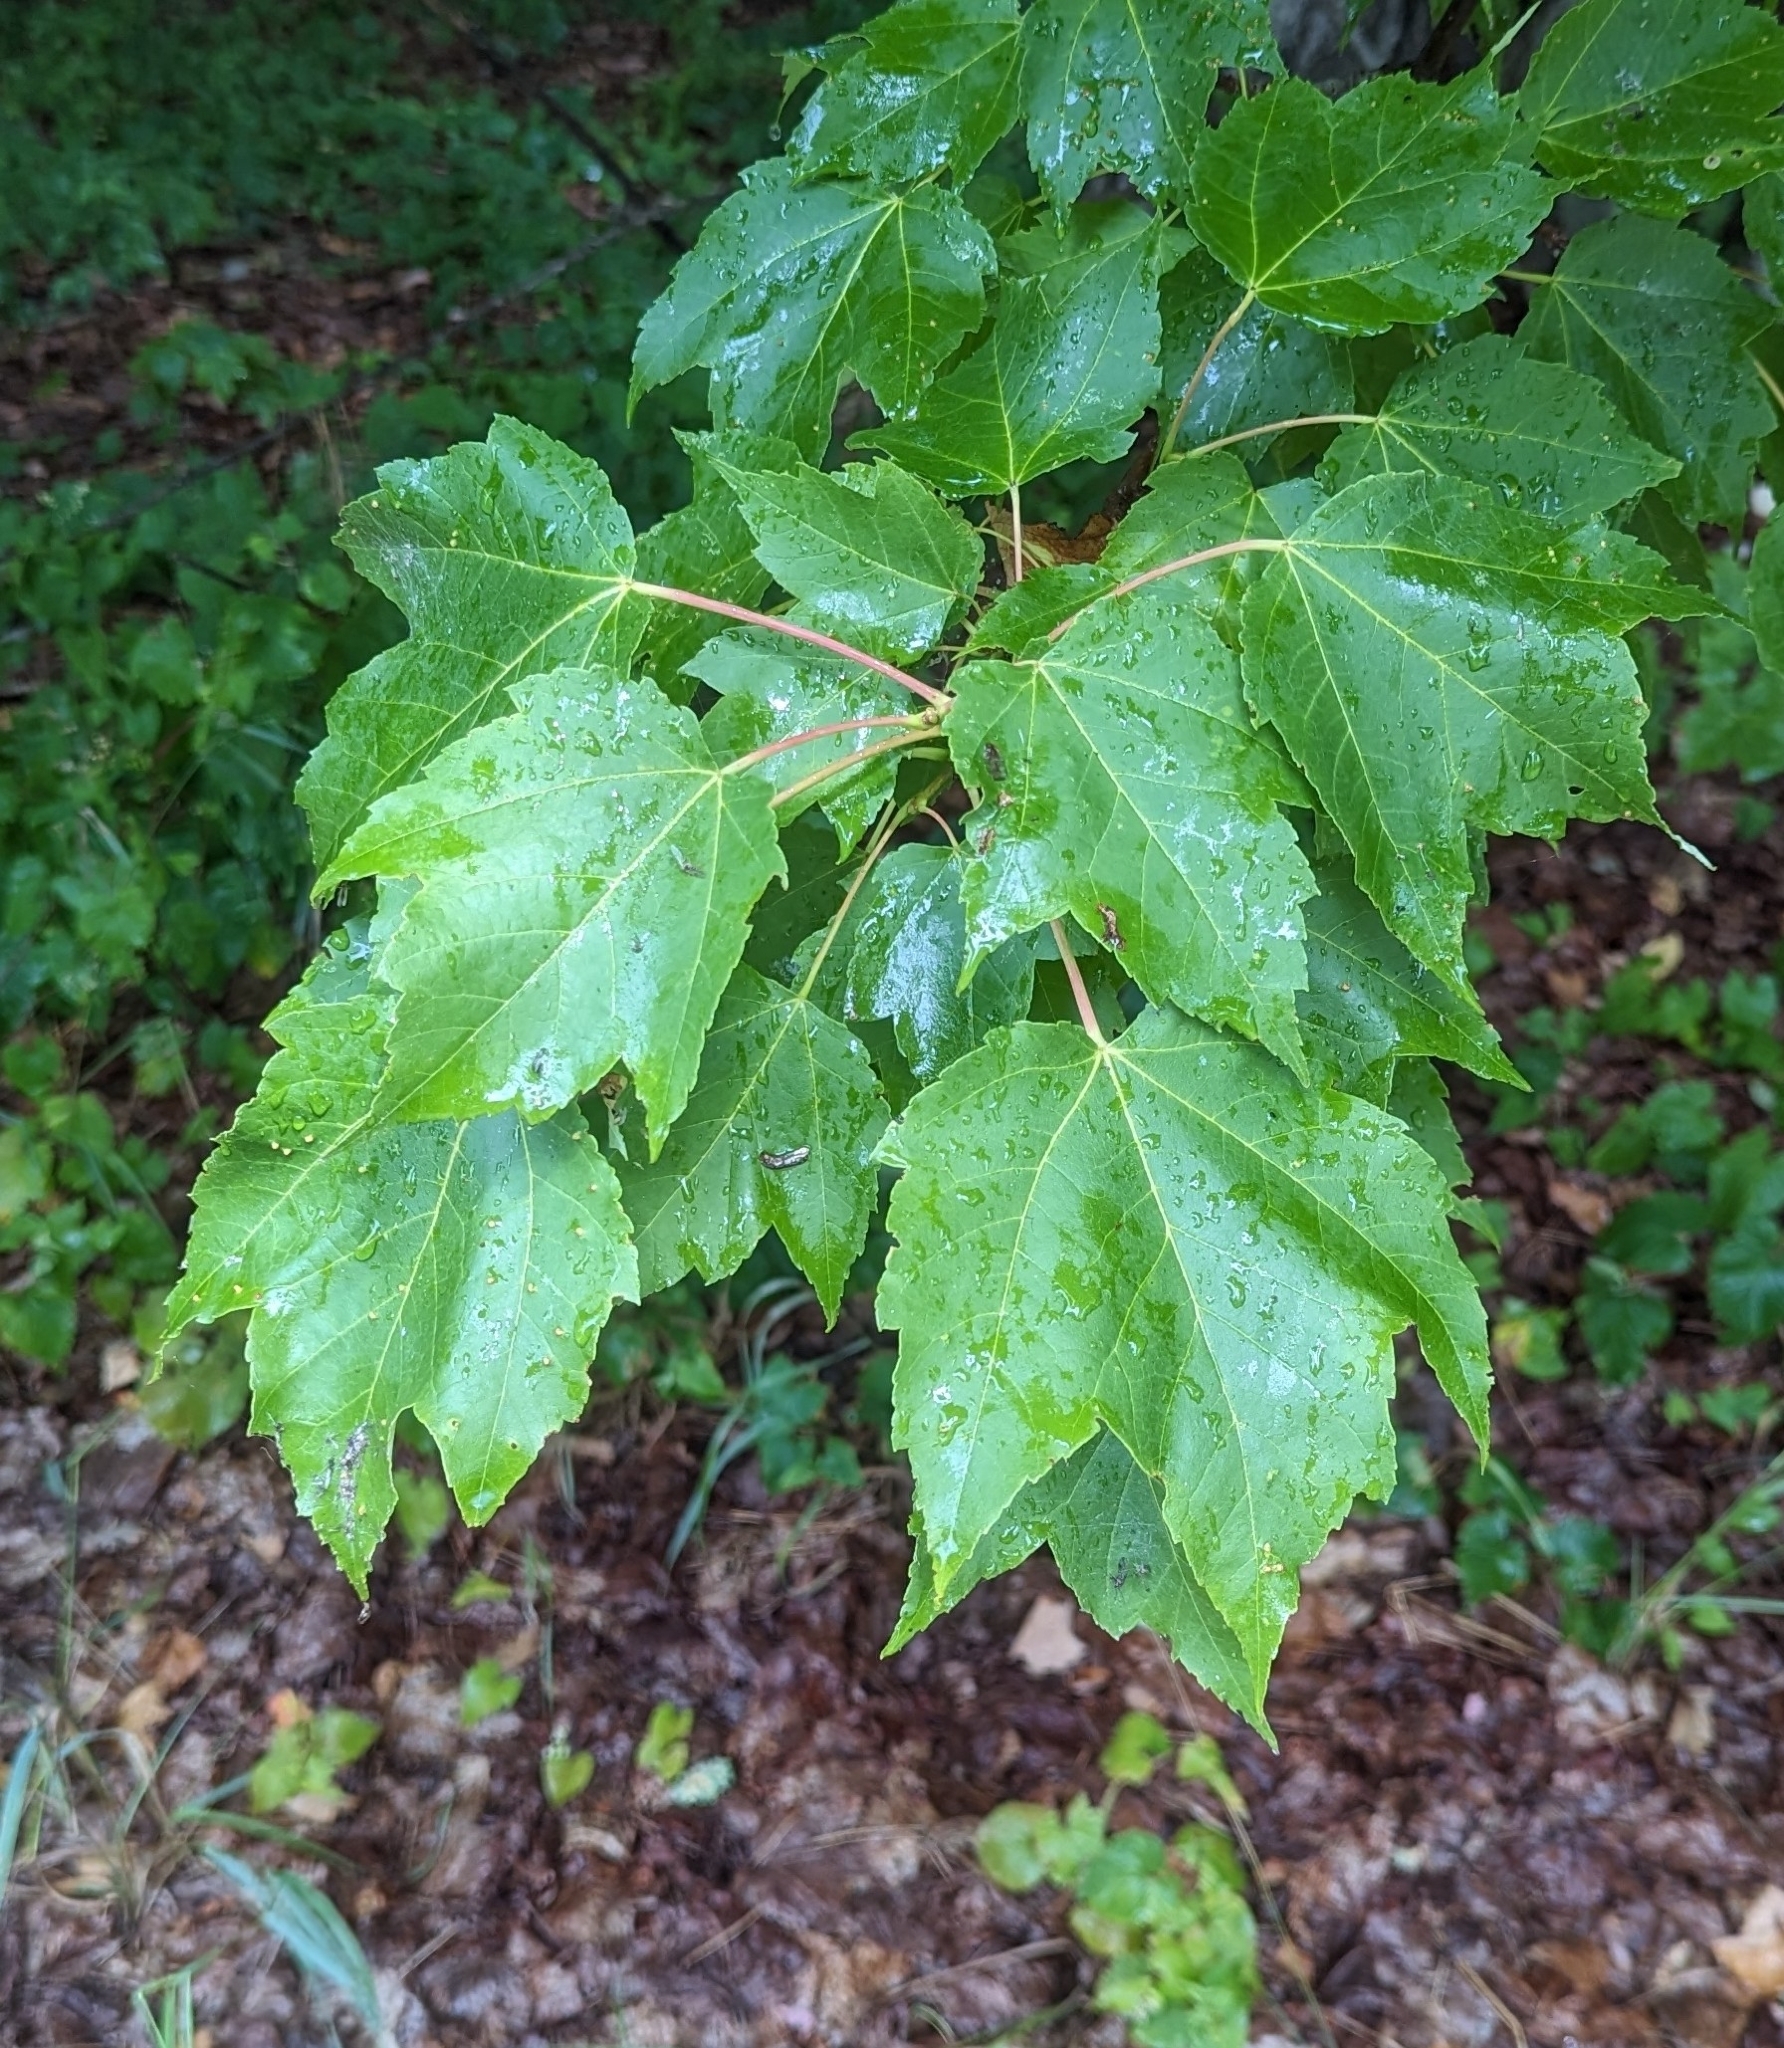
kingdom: Plantae
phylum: Tracheophyta
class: Magnoliopsida
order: Sapindales
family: Sapindaceae
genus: Acer
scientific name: Acer rubrum
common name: Red maple
